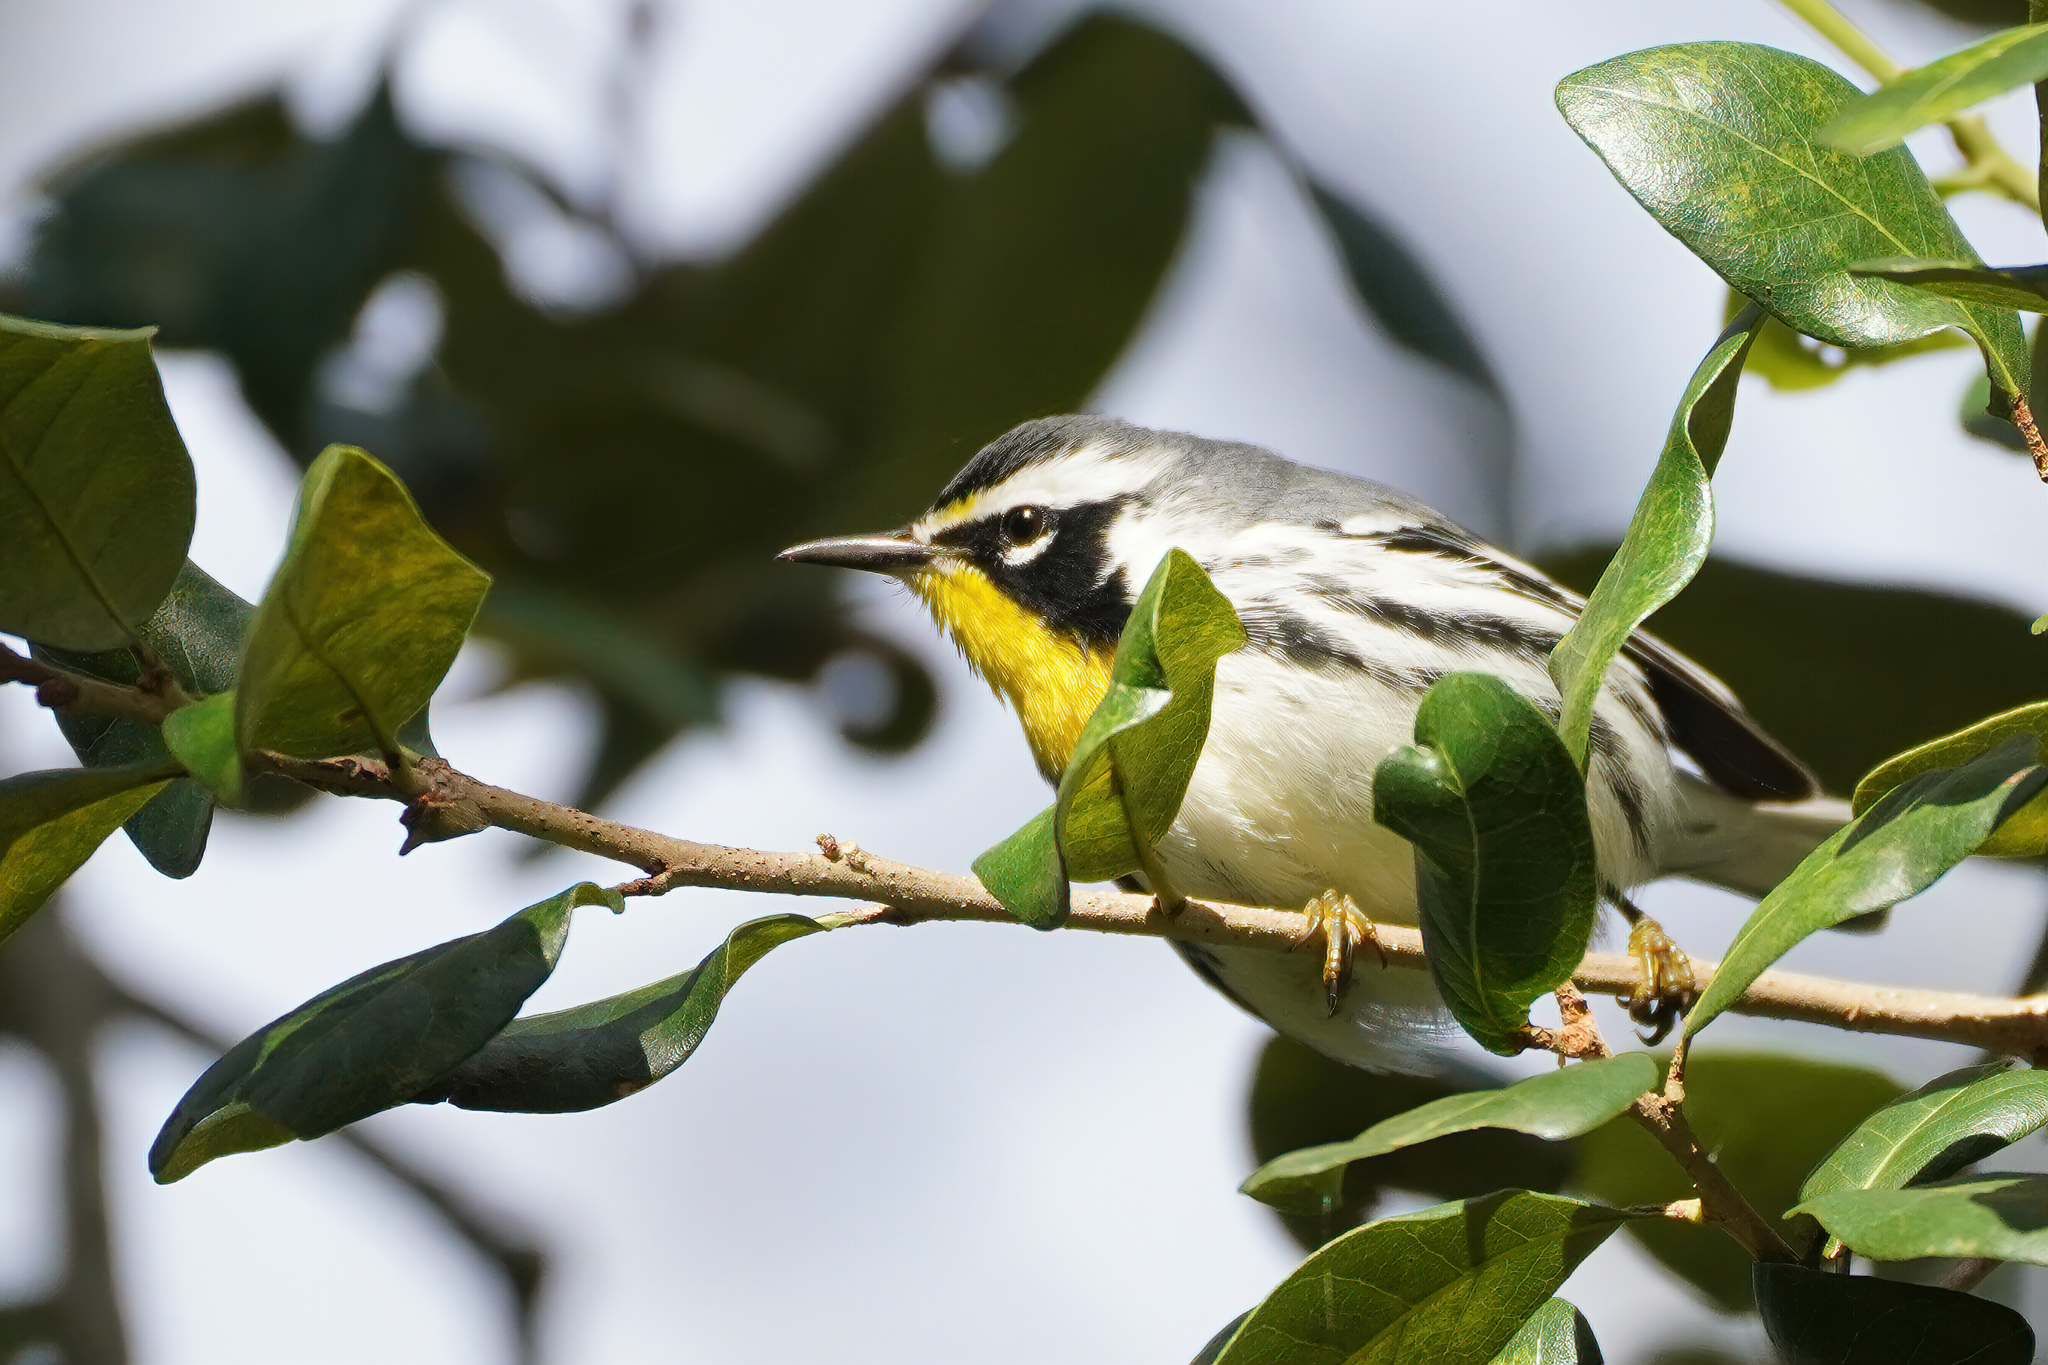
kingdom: Animalia
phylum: Chordata
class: Aves
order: Passeriformes
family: Parulidae
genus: Setophaga
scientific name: Setophaga dominica
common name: Yellow-throated warbler
